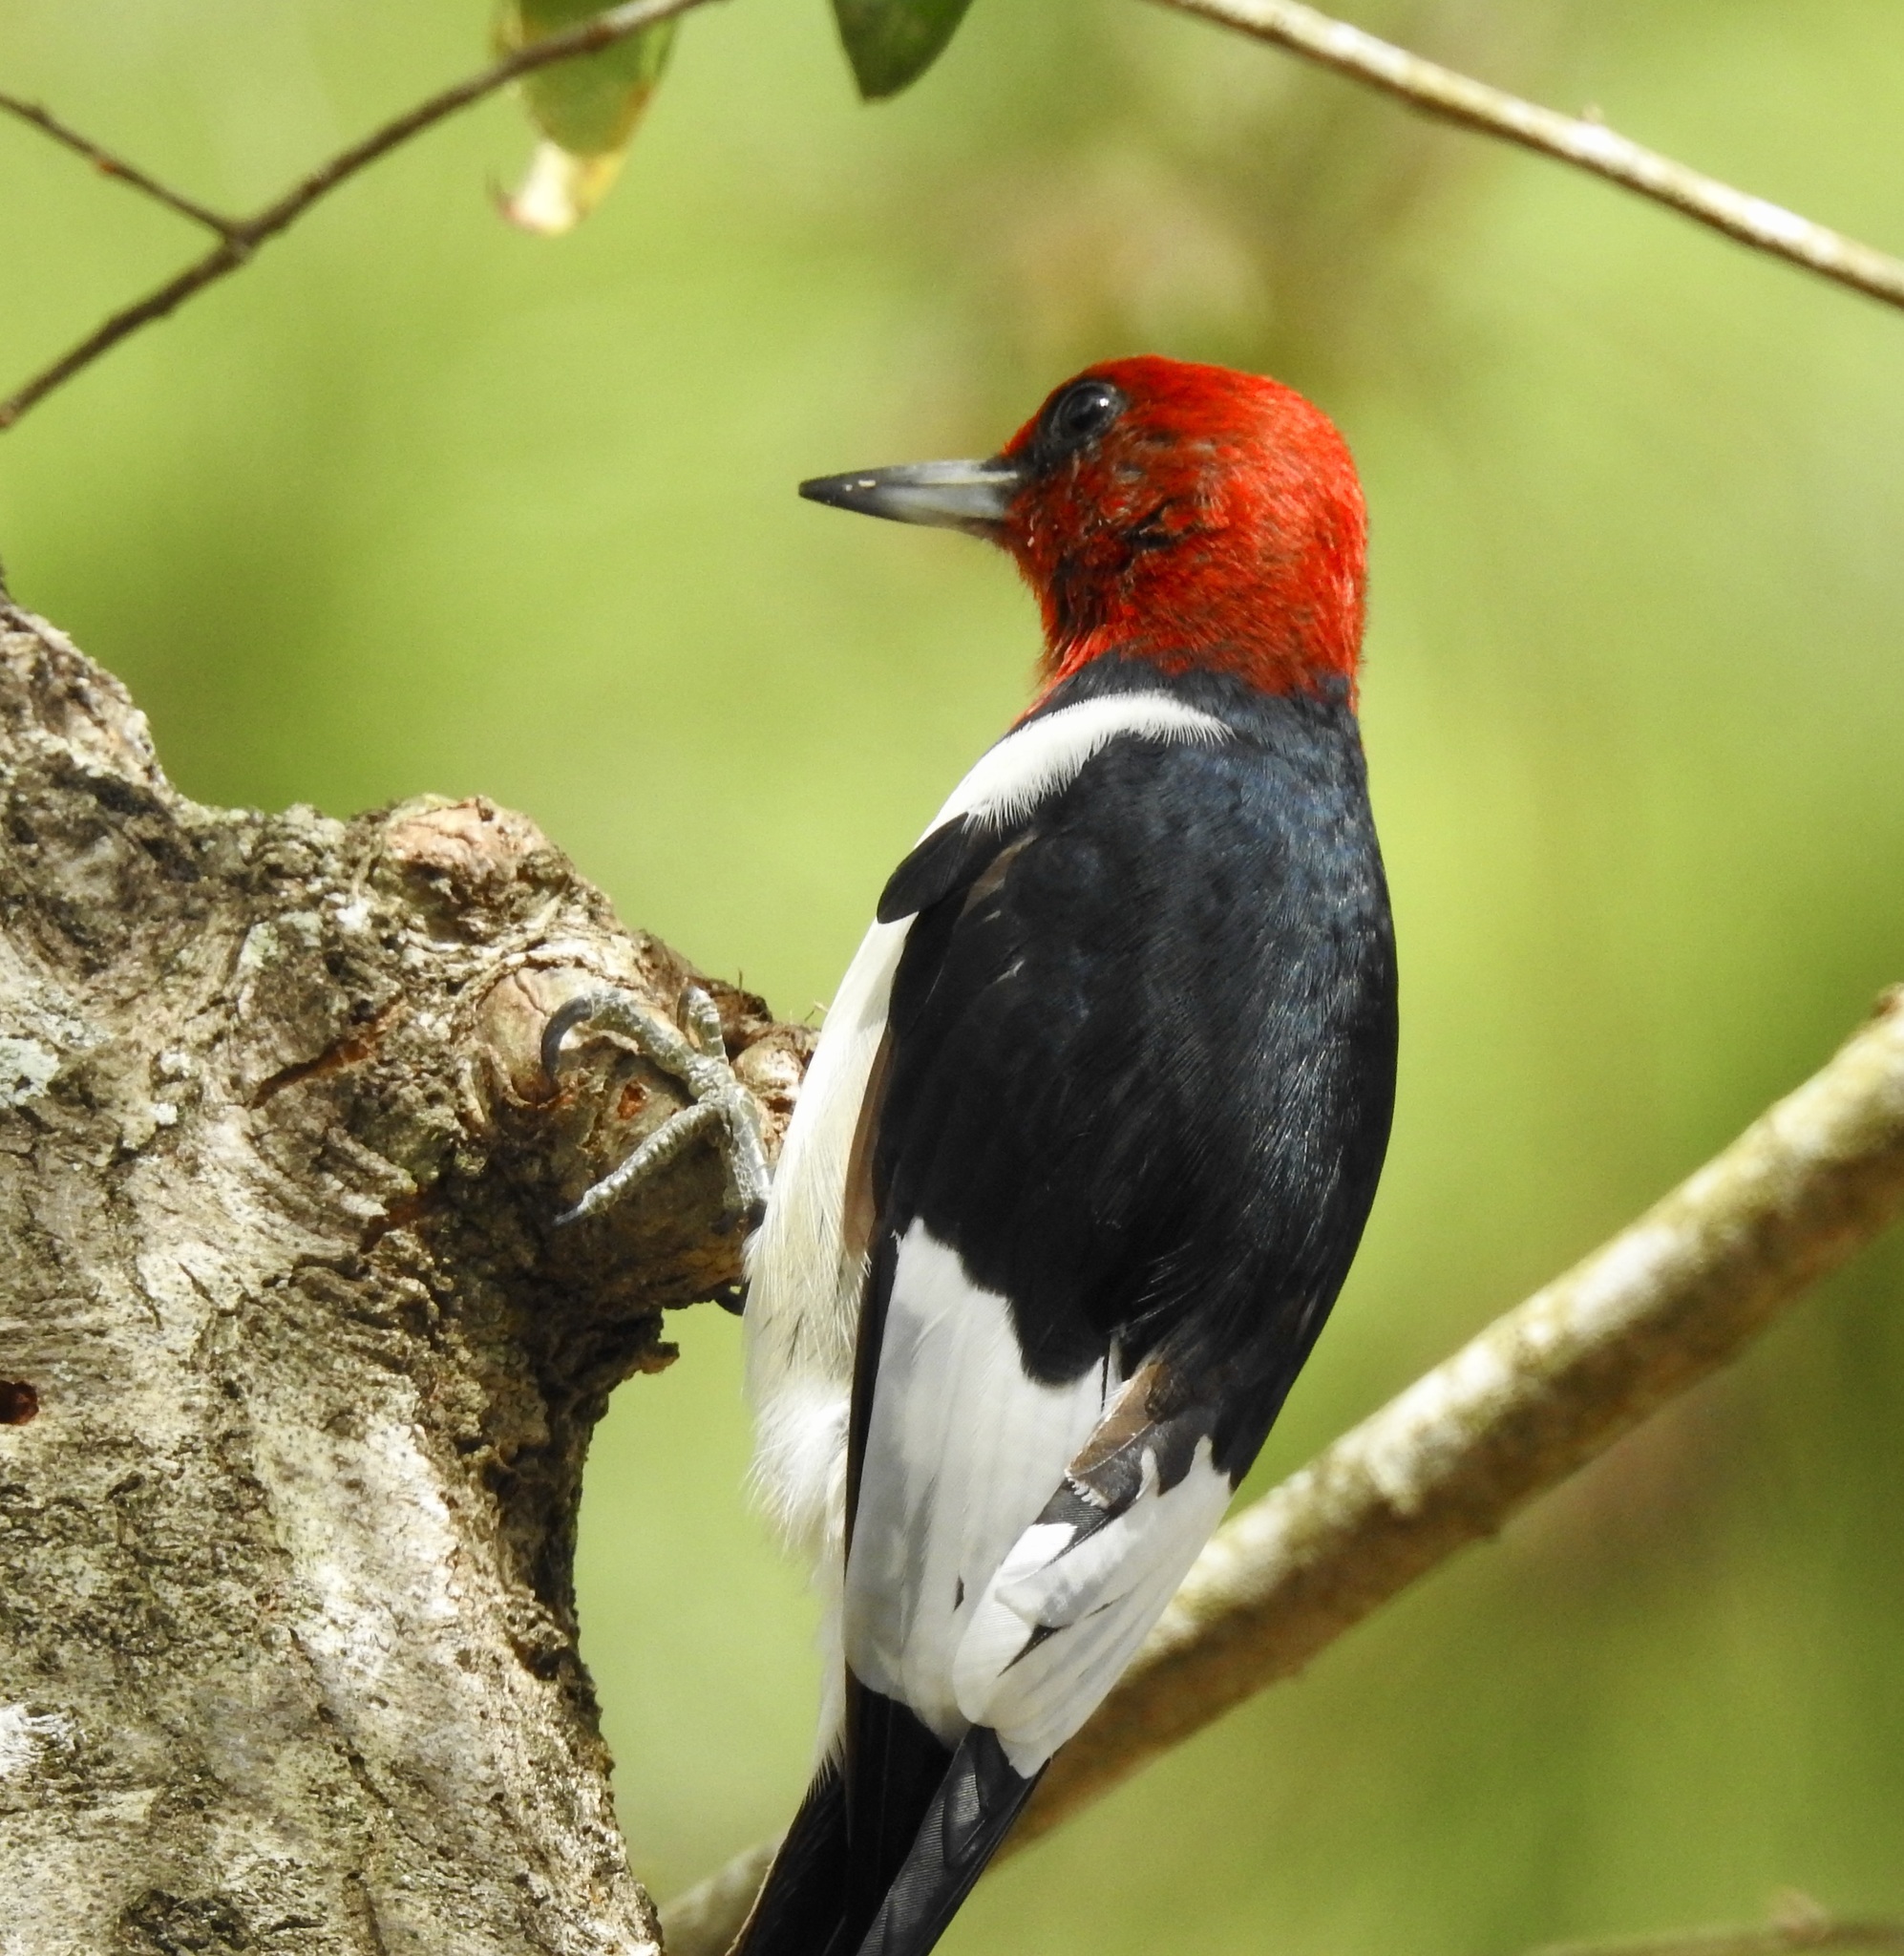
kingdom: Animalia
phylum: Chordata
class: Aves
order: Piciformes
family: Picidae
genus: Melanerpes
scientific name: Melanerpes erythrocephalus
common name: Red-headed woodpecker
